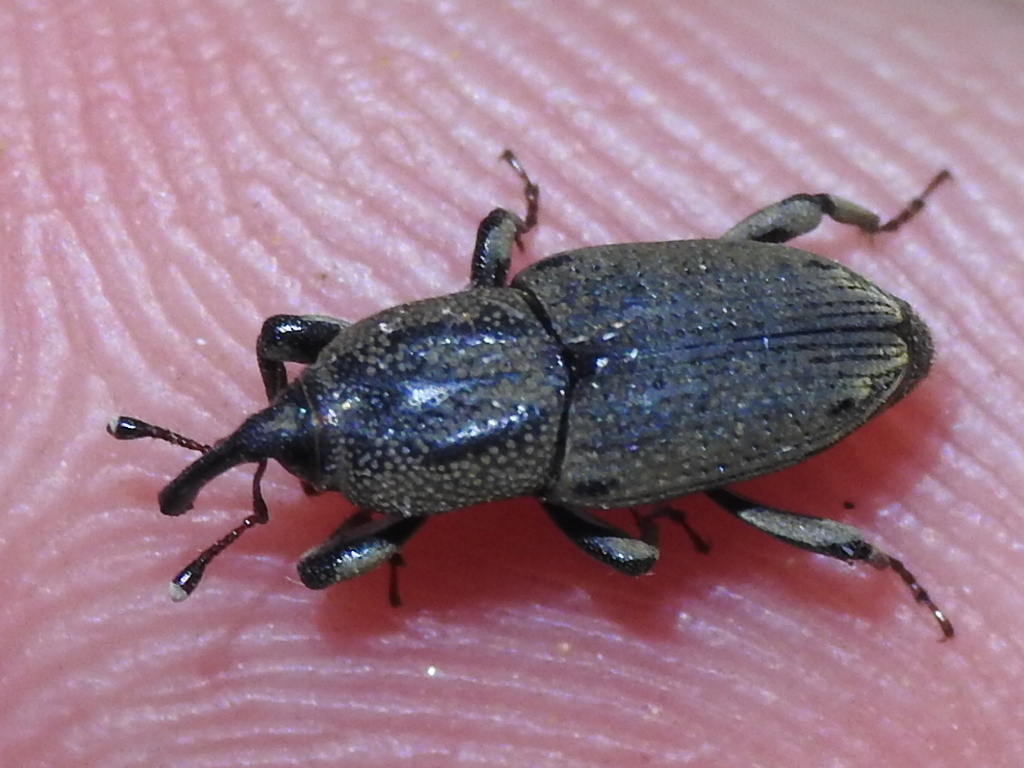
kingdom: Animalia
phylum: Arthropoda
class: Insecta
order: Coleoptera
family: Dryophthoridae
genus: Sphenophorus
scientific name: Sphenophorus venatus
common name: Hunting billbug
